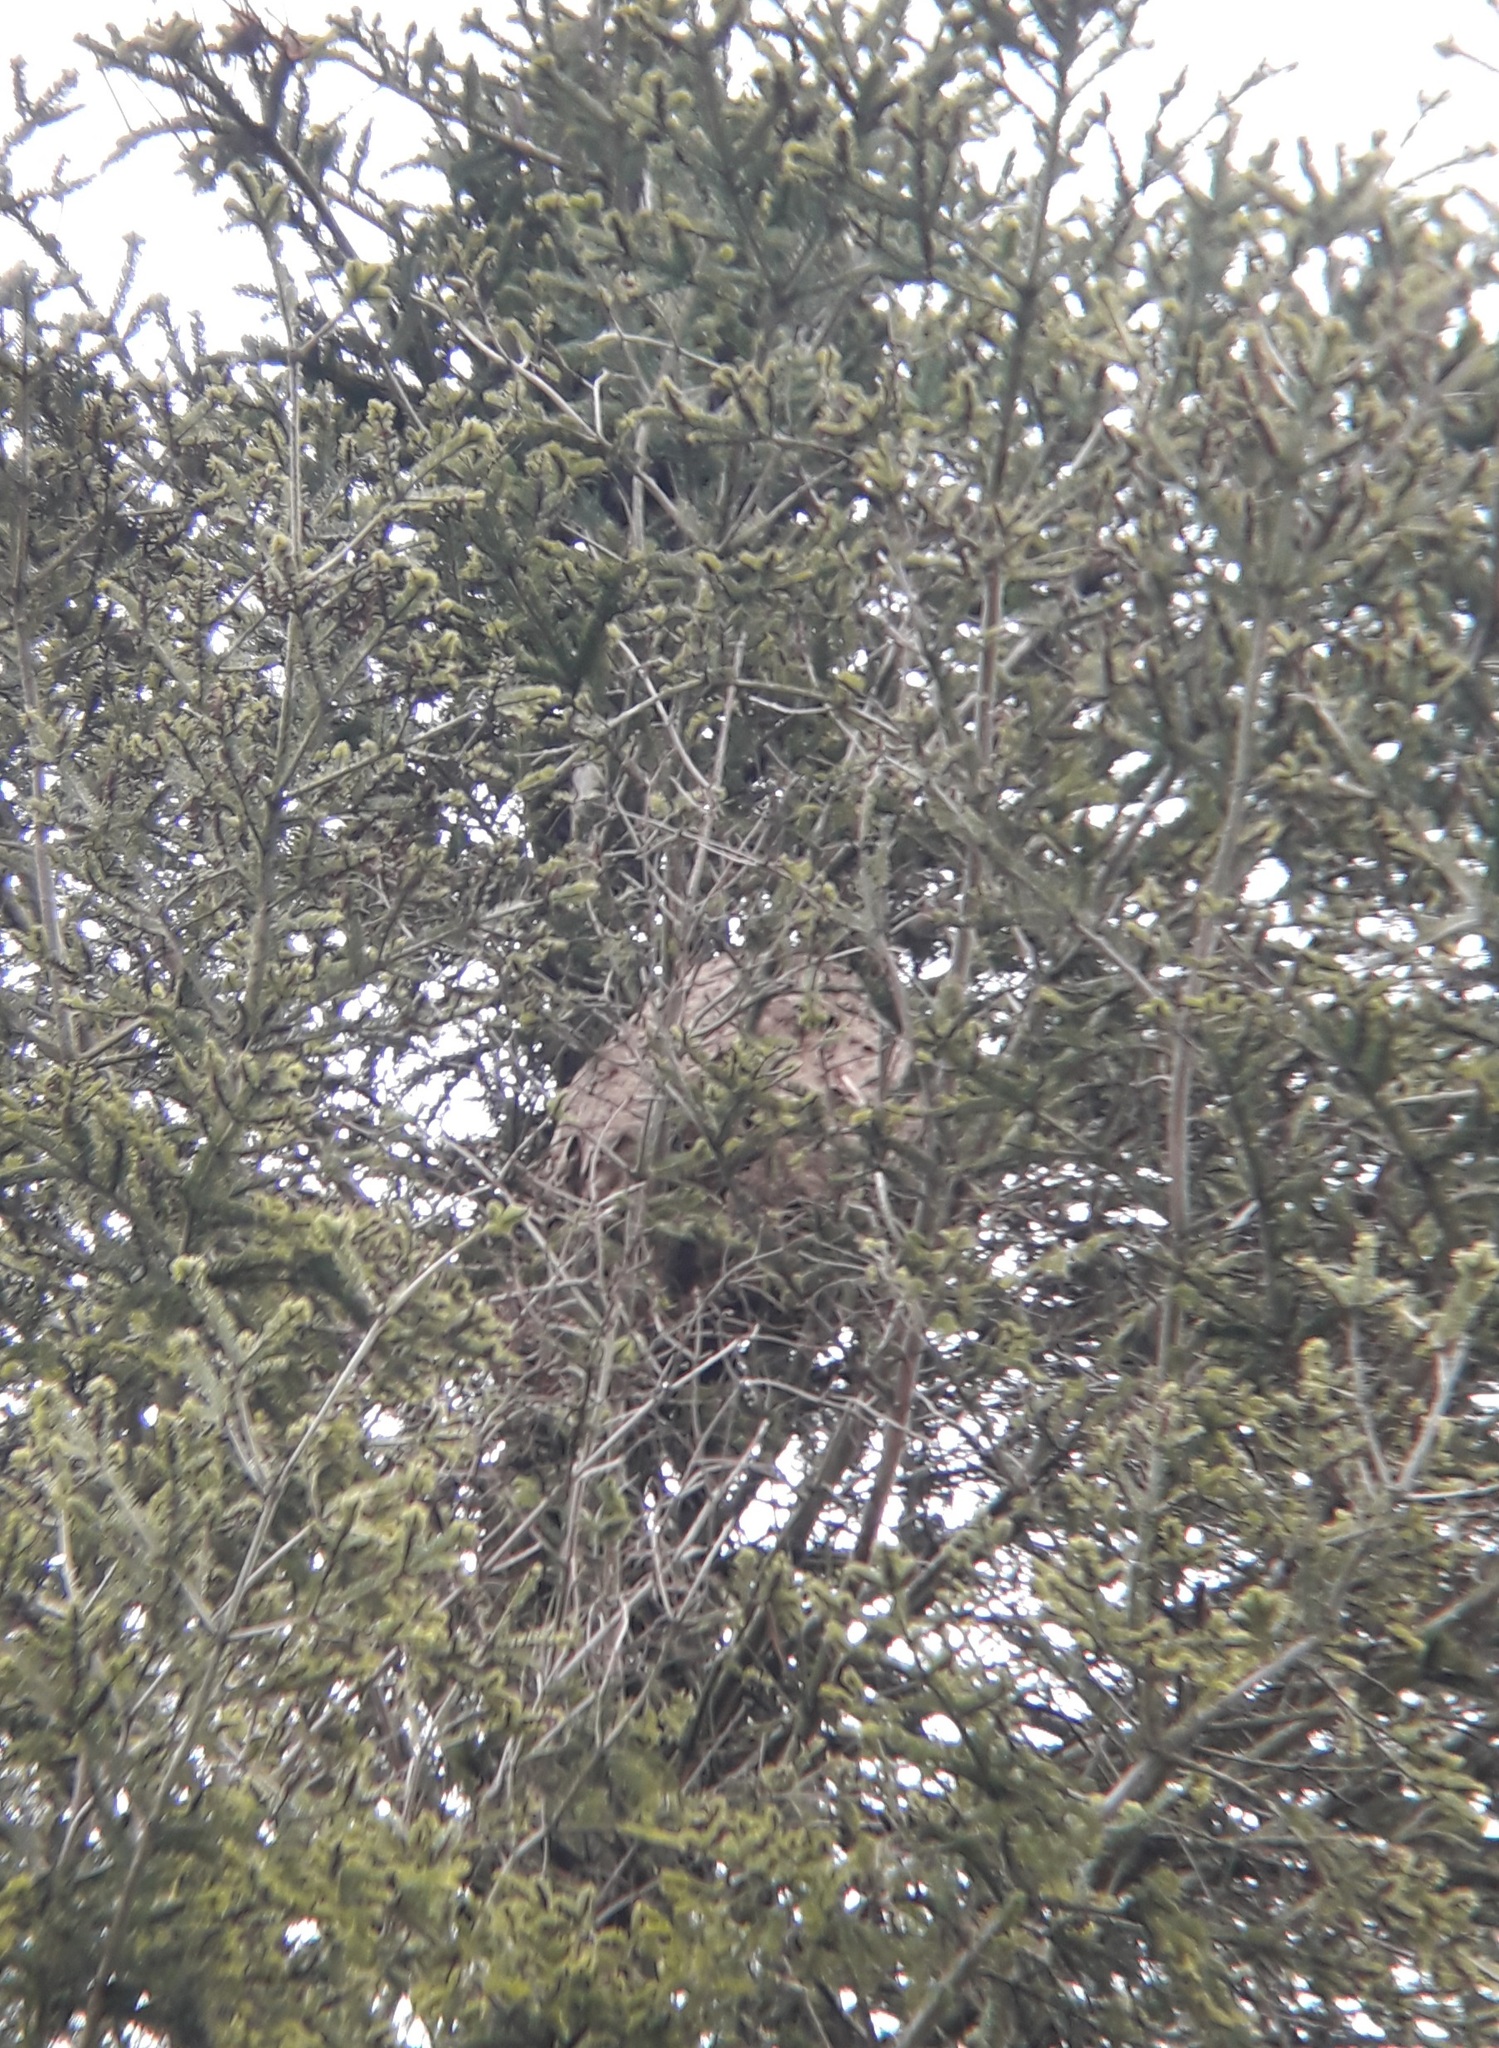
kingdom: Animalia
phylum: Arthropoda
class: Insecta
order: Hymenoptera
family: Vespidae
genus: Vespa
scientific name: Vespa velutina
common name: Asian hornet
